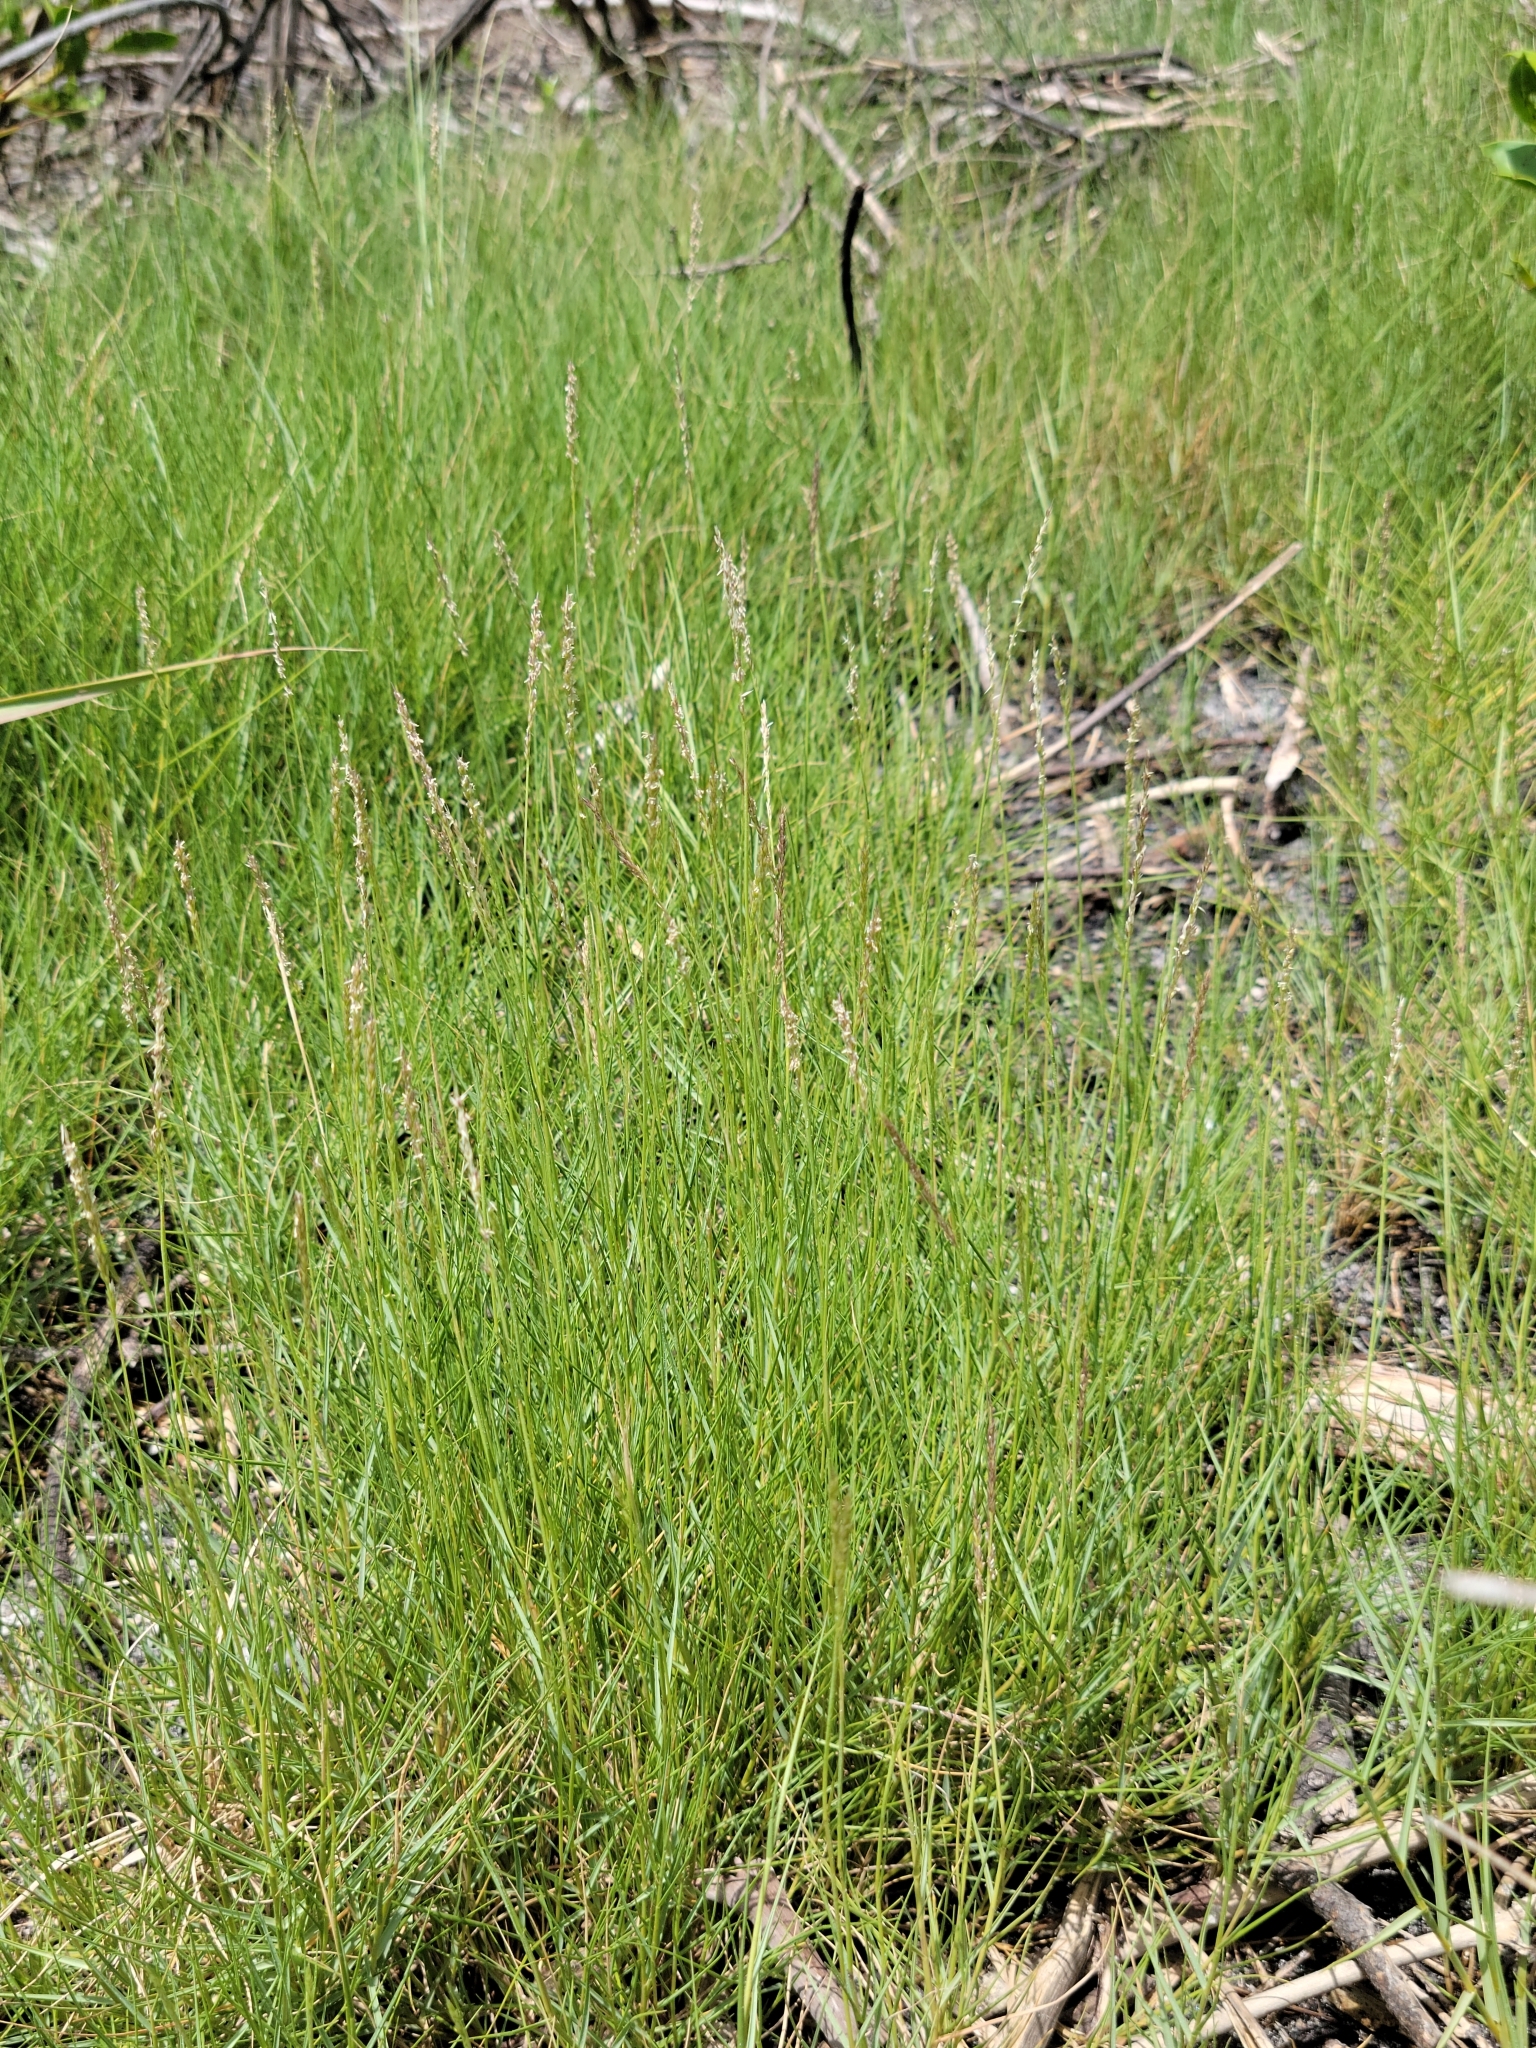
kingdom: Plantae
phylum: Tracheophyta
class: Liliopsida
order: Poales
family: Poaceae
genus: Sporobolus
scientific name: Sporobolus virginicus
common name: Beach dropseed
